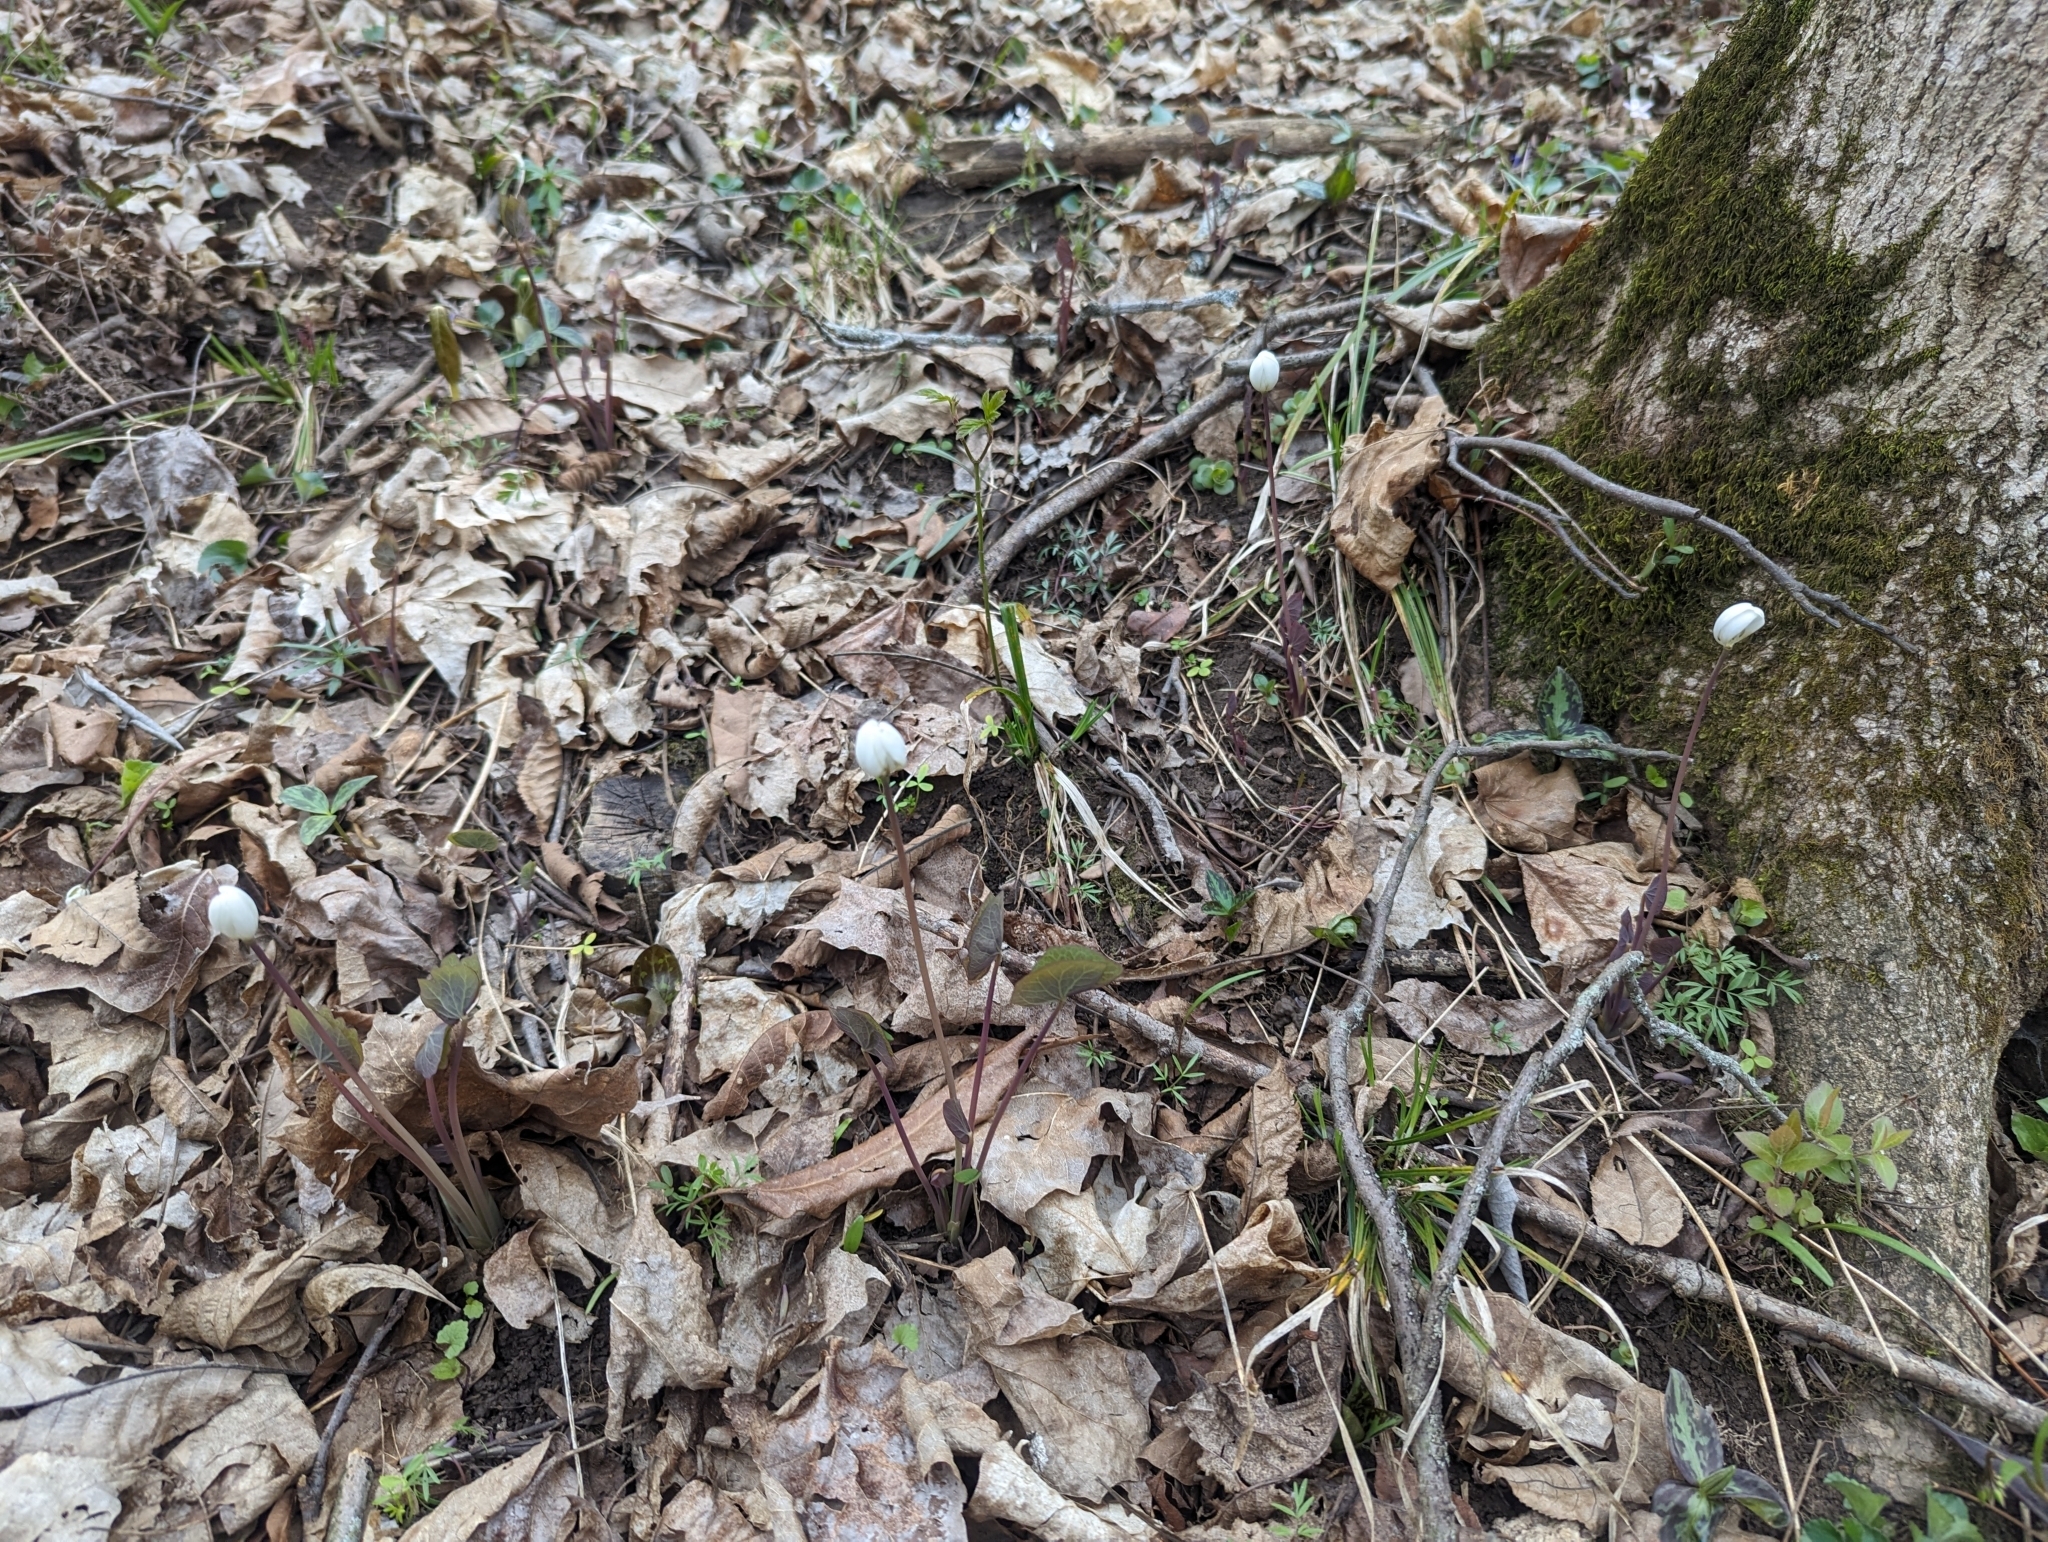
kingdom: Plantae
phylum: Tracheophyta
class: Magnoliopsida
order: Ranunculales
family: Berberidaceae
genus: Jeffersonia
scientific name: Jeffersonia diphylla
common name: Rheumatism-root
